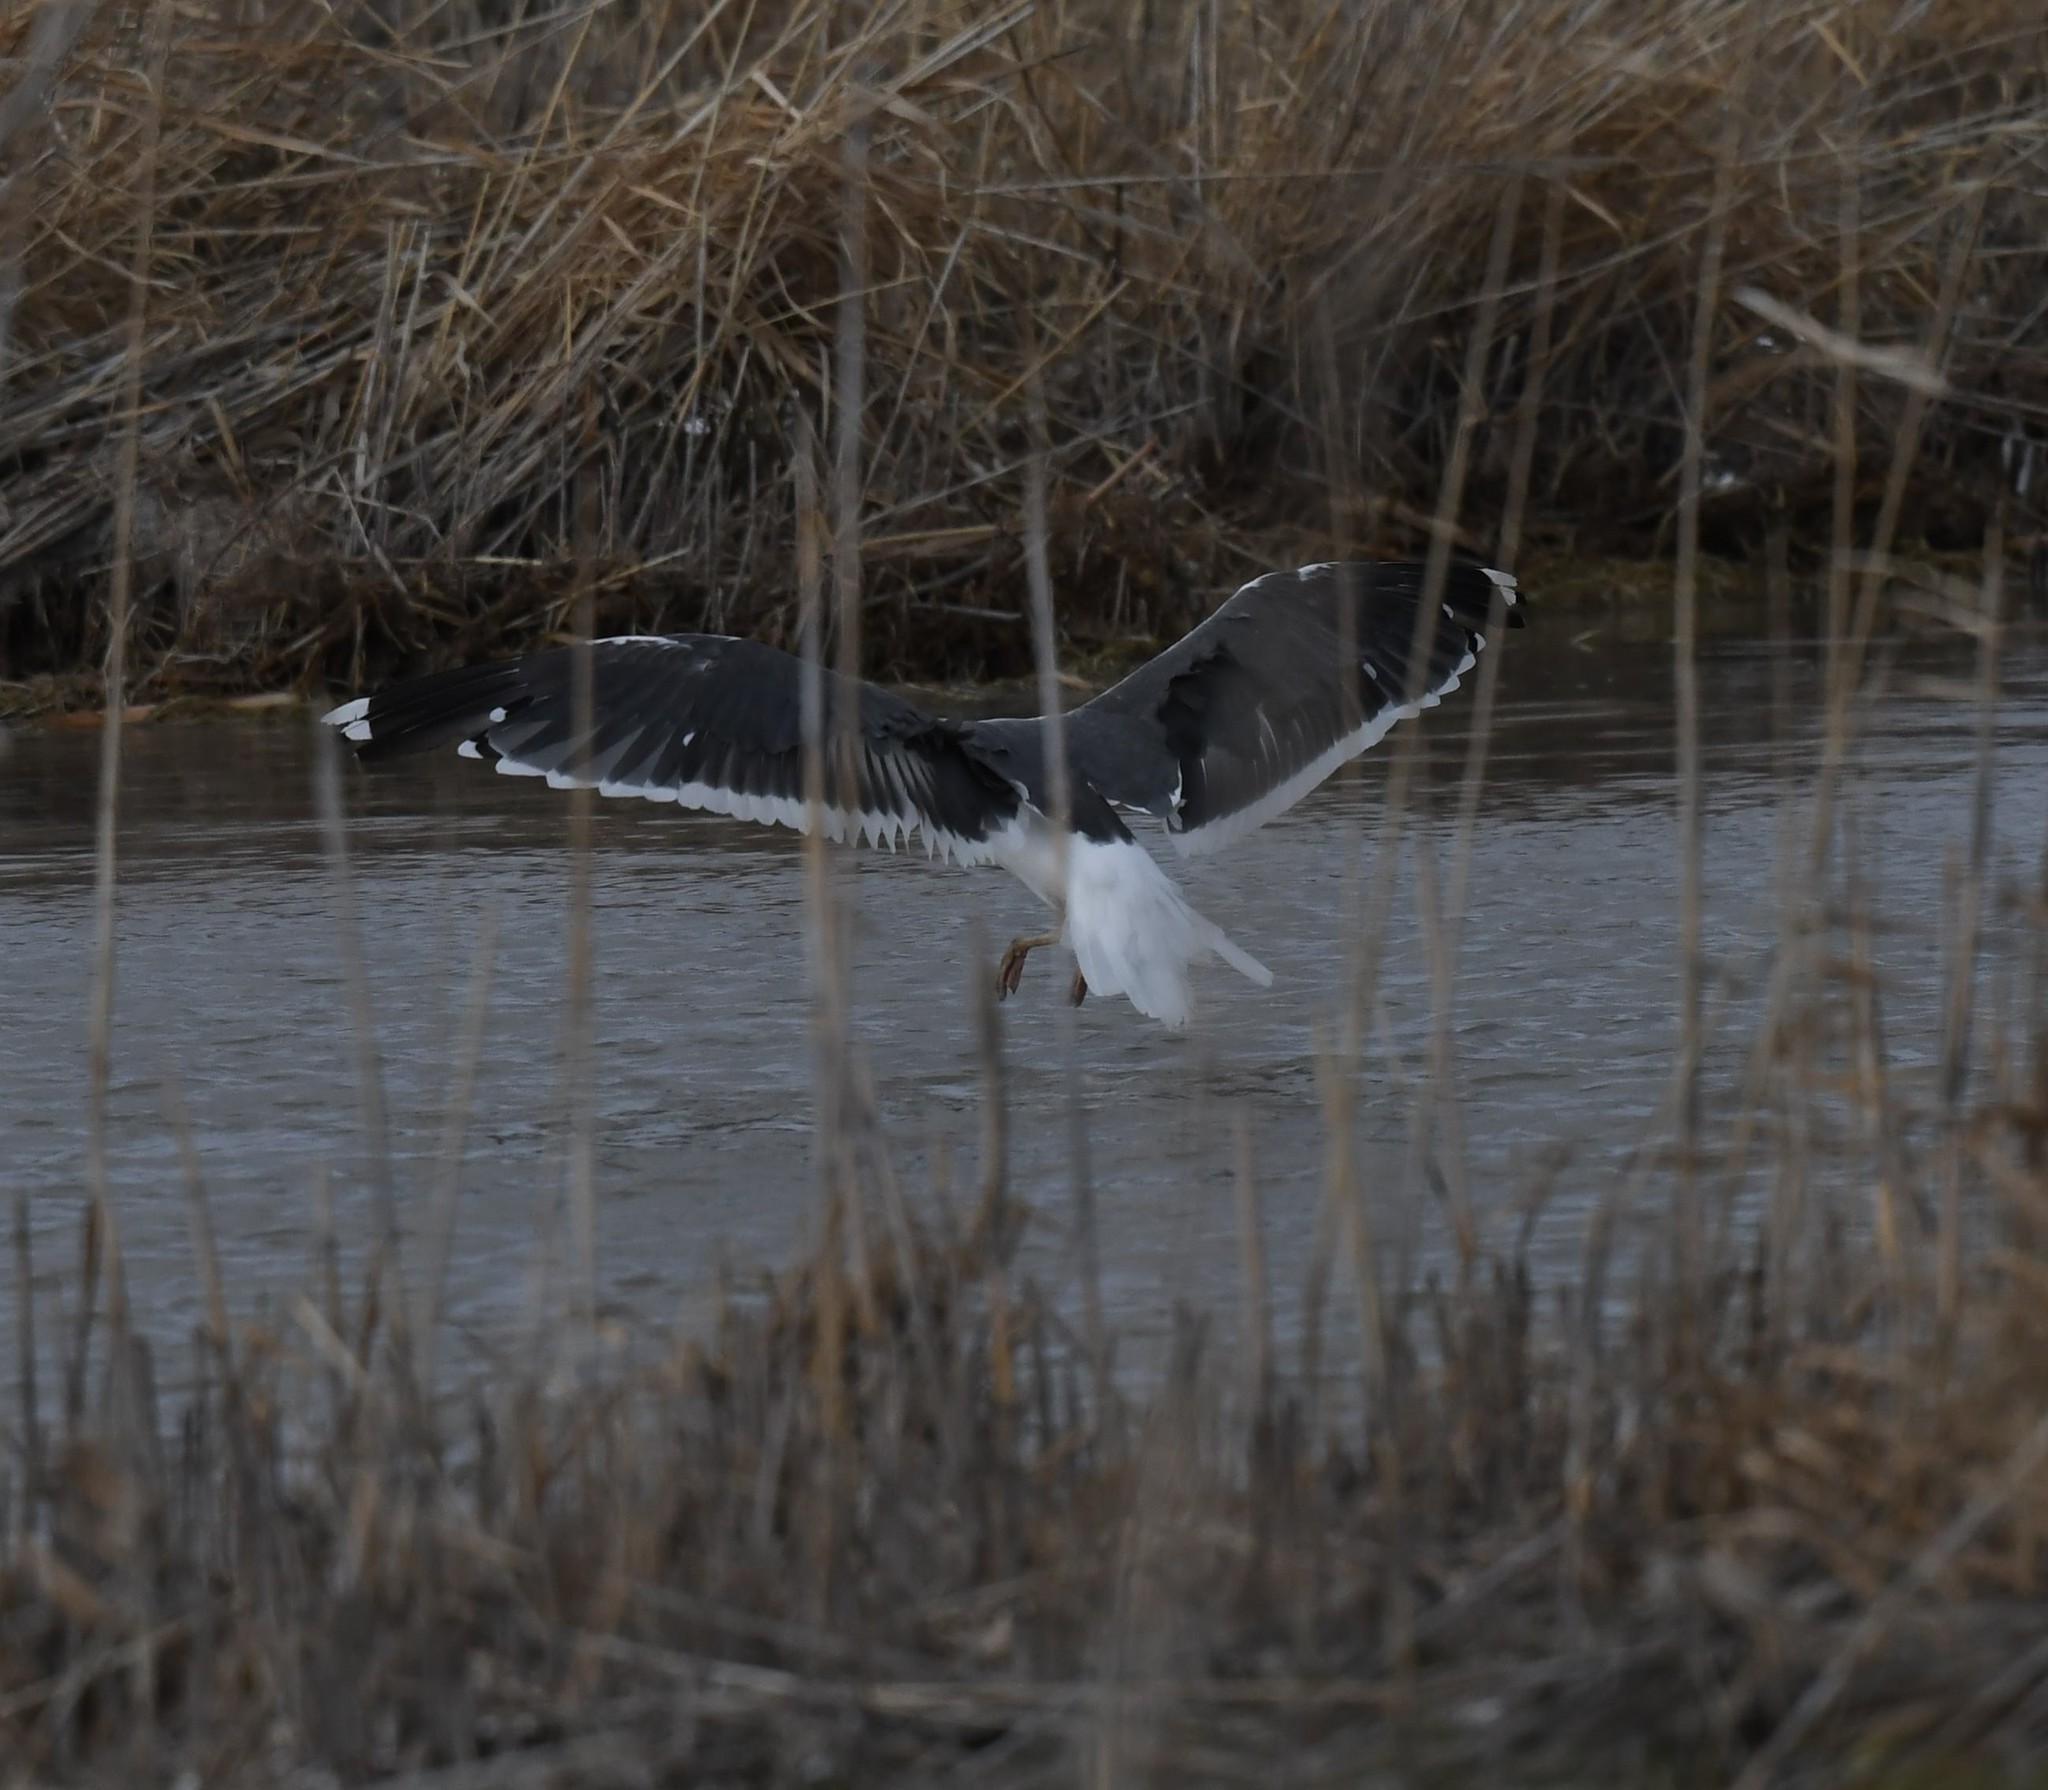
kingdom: Animalia
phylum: Chordata
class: Aves
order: Charadriiformes
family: Laridae
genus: Larus
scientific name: Larus fuscus
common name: Lesser black-backed gull
